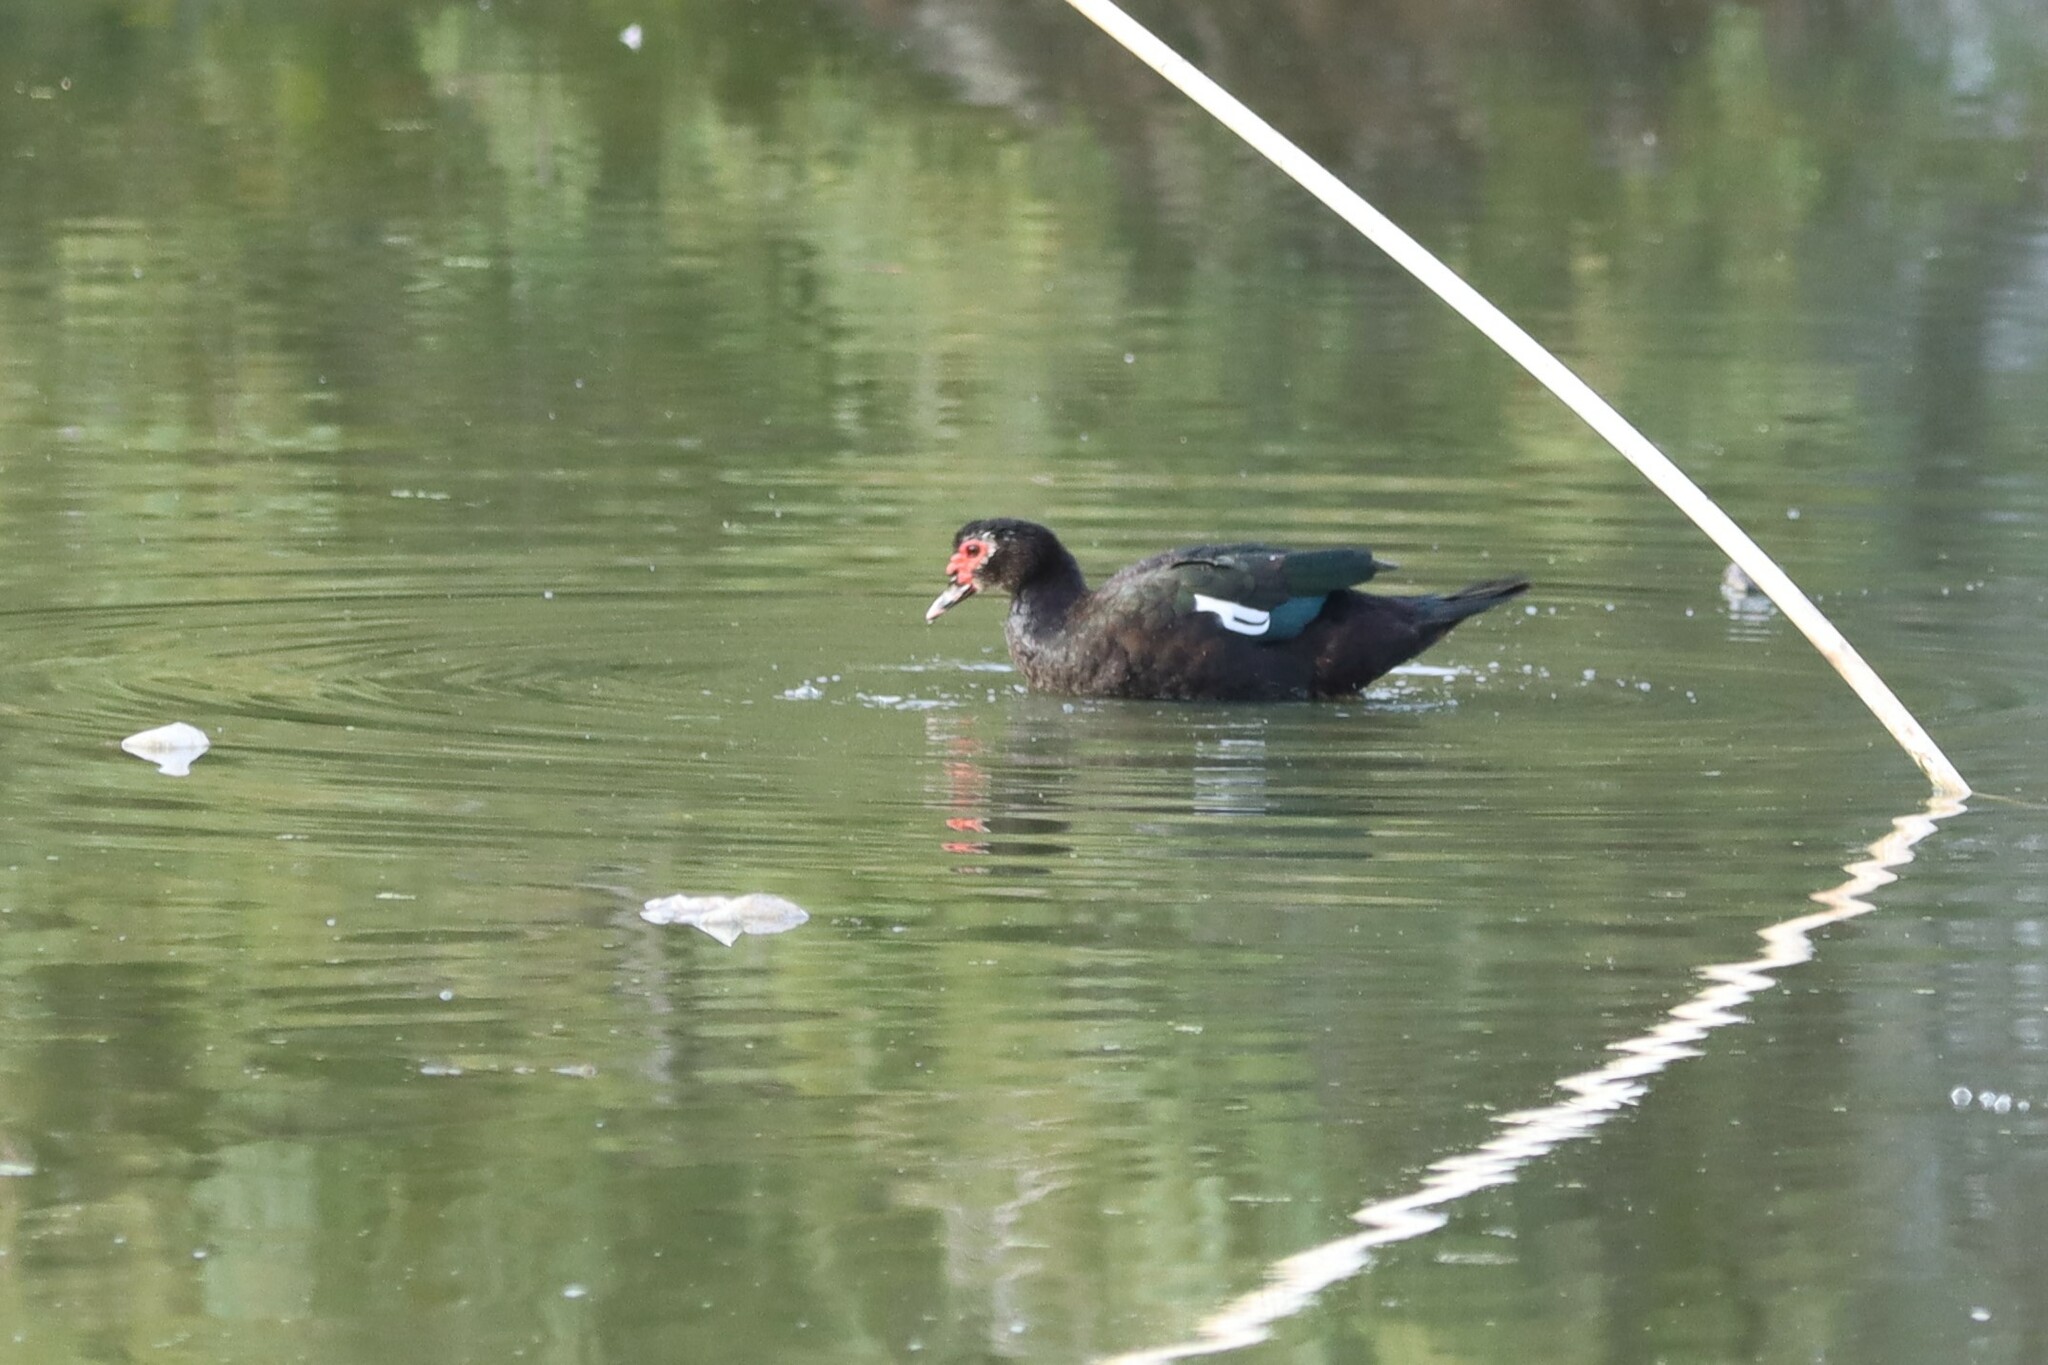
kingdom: Animalia
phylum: Chordata
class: Aves
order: Anseriformes
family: Anatidae
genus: Cairina
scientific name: Cairina moschata
